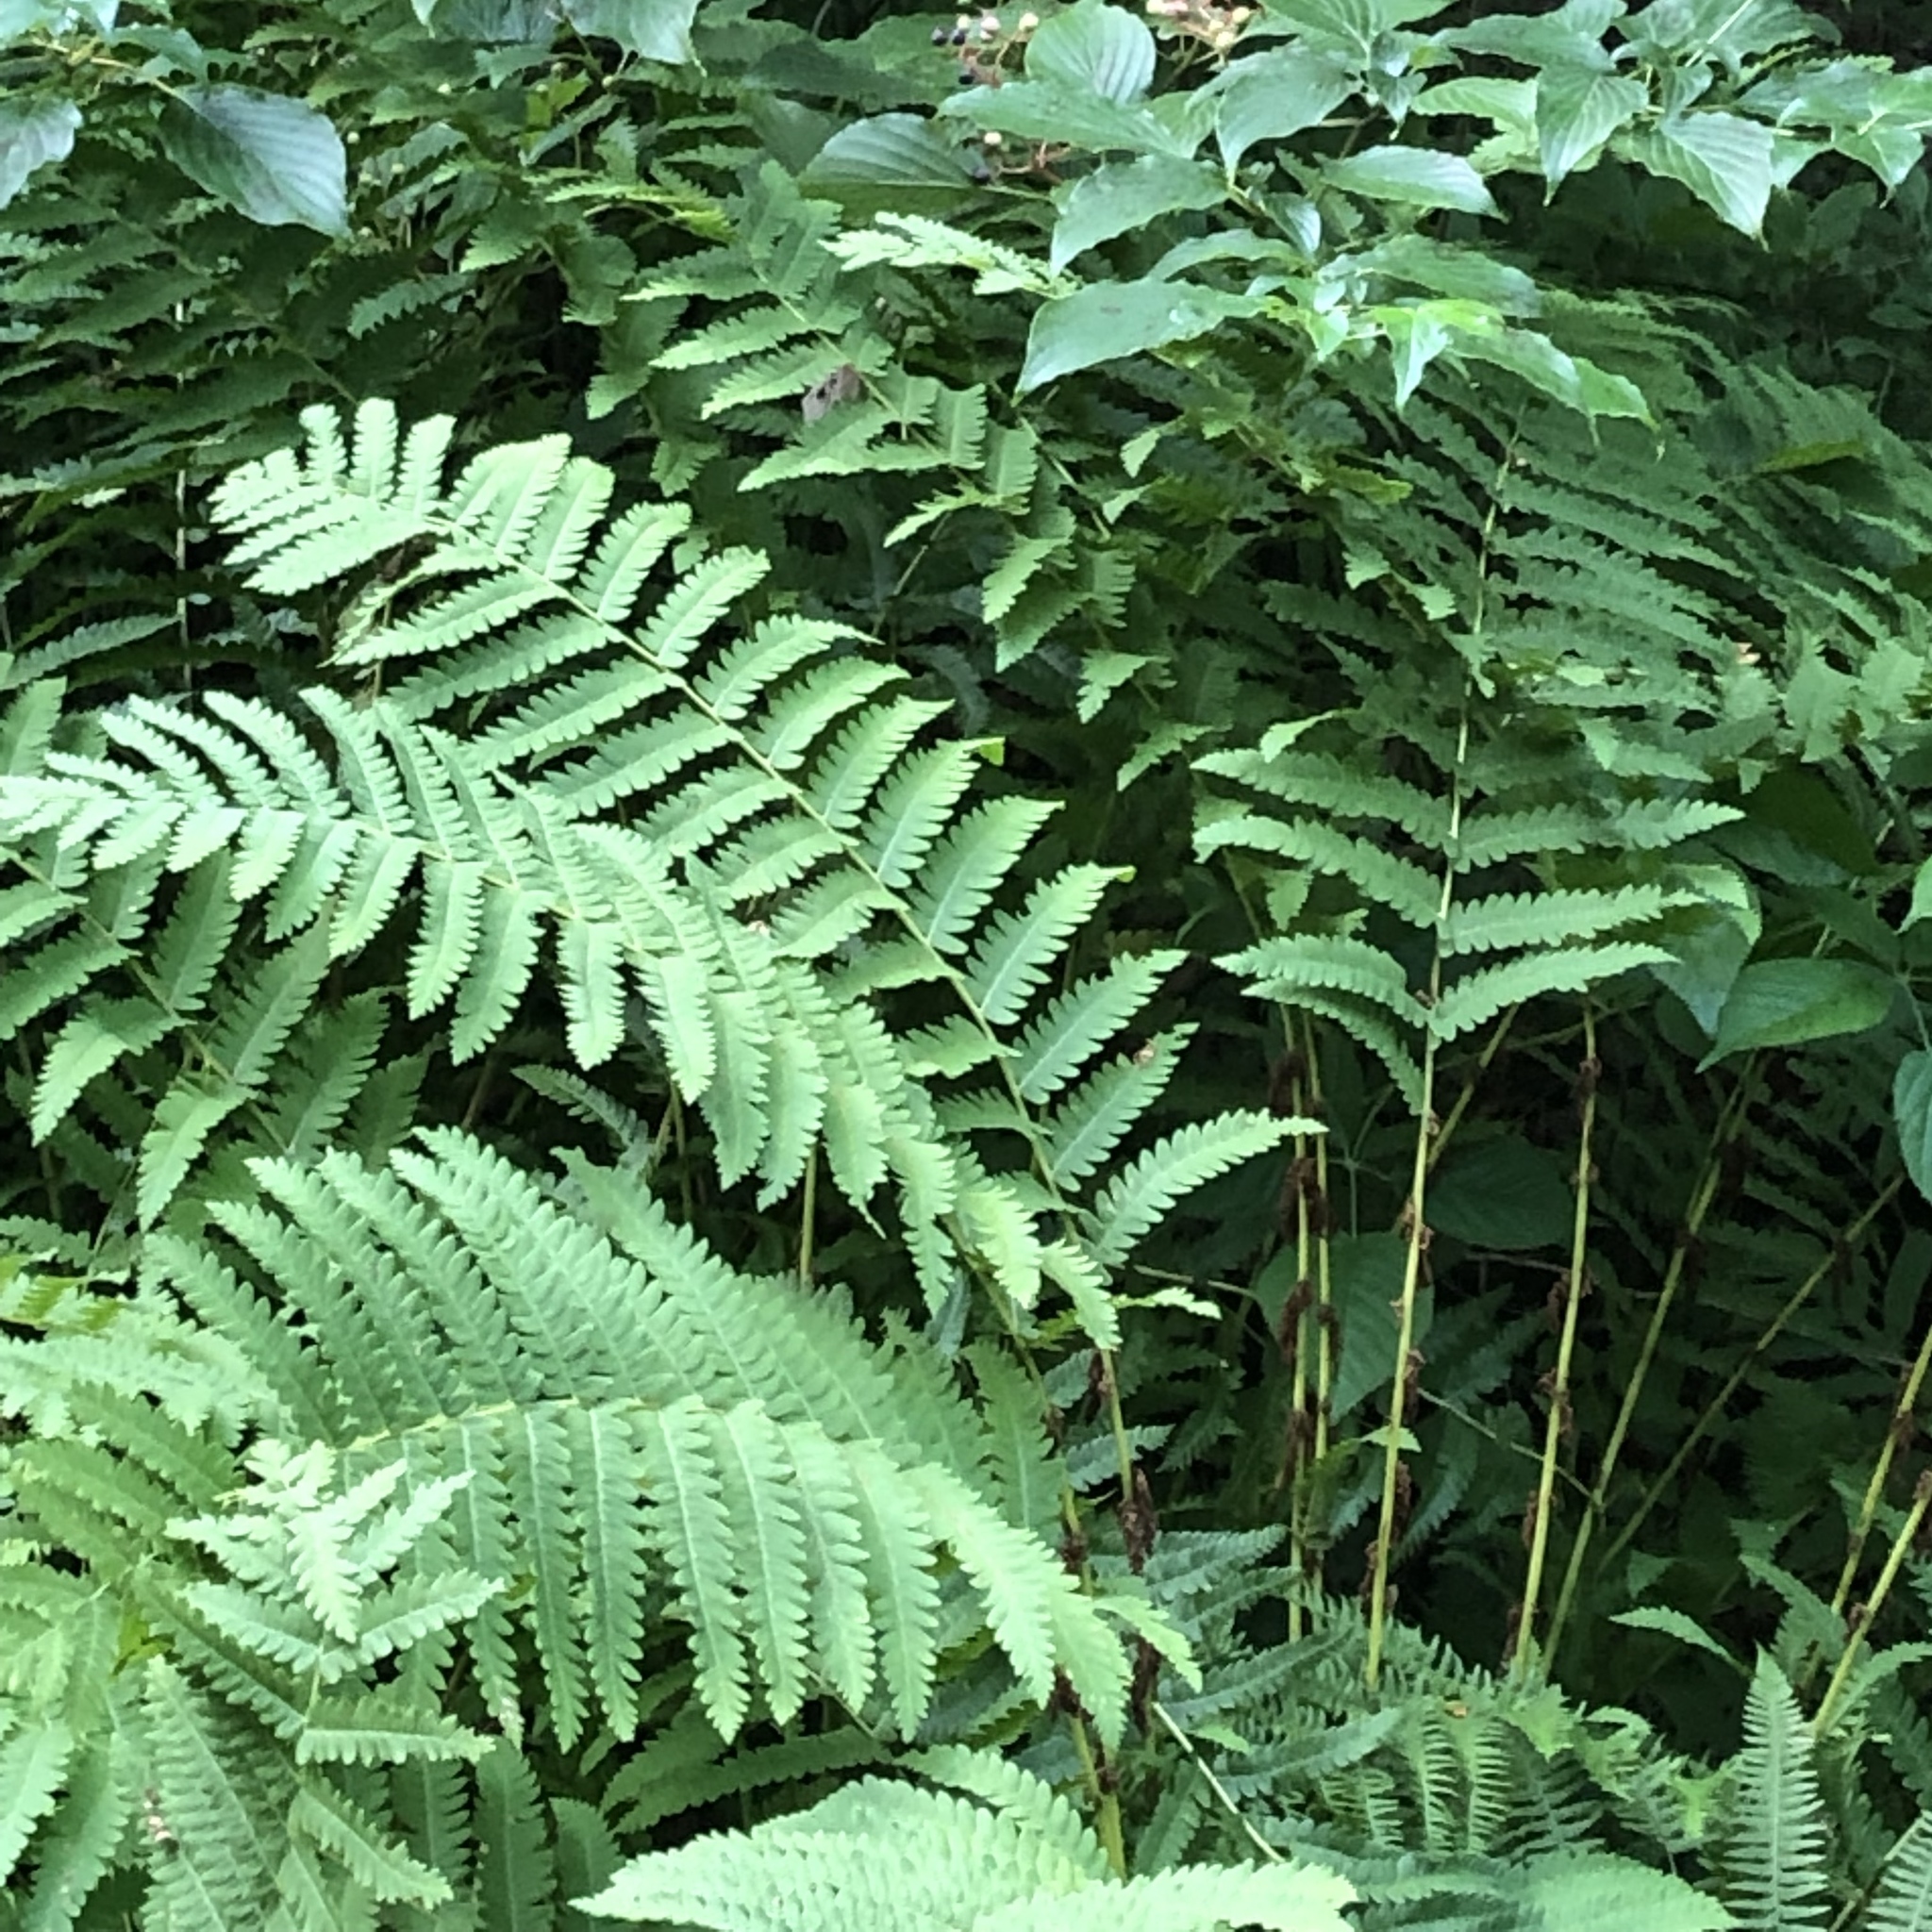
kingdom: Plantae
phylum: Tracheophyta
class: Polypodiopsida
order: Osmundales
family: Osmundaceae
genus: Claytosmunda
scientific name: Claytosmunda claytoniana
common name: Clayton's fern
